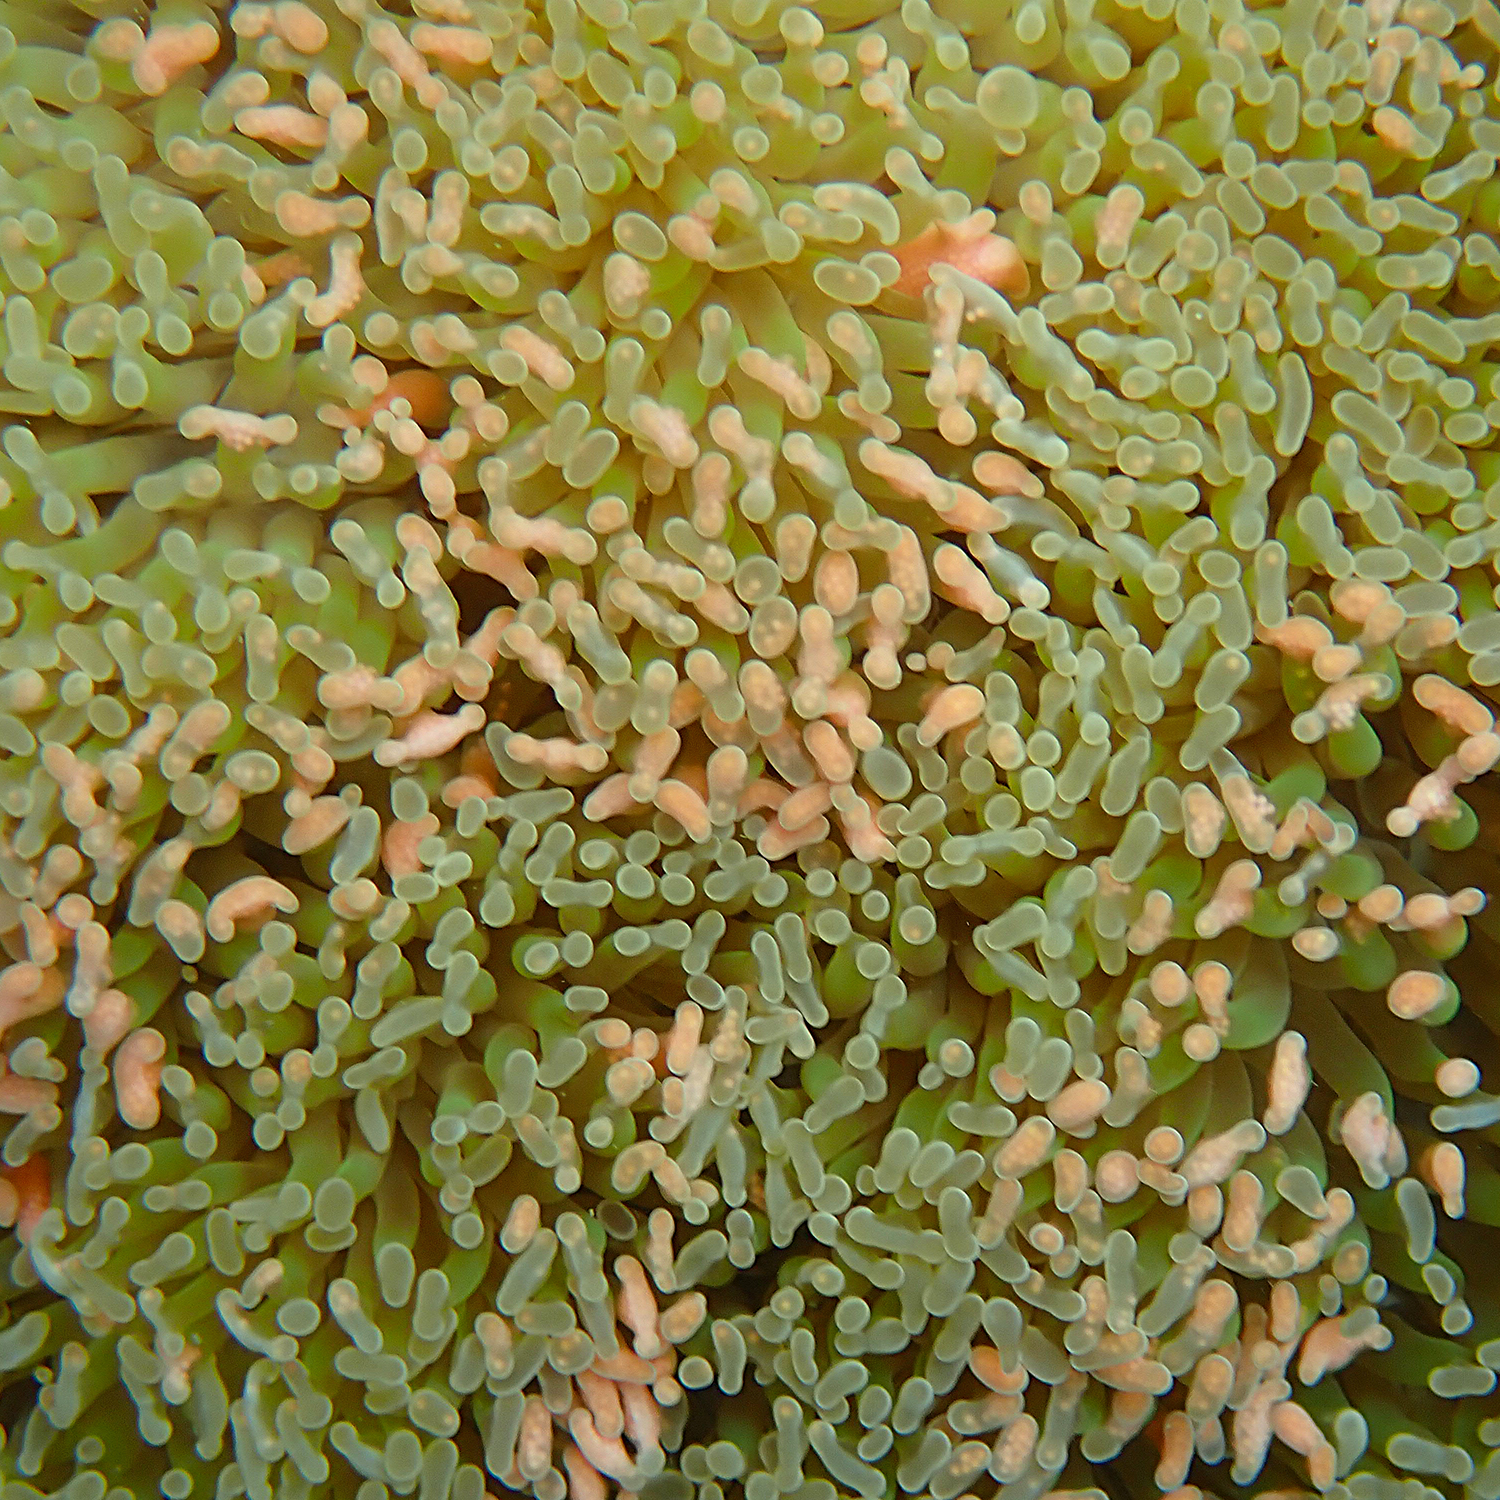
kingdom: Animalia
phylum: Cnidaria
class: Anthozoa
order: Scleractinia
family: Euphylliidae
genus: Fimbriaphyllia
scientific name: Fimbriaphyllia ancora
